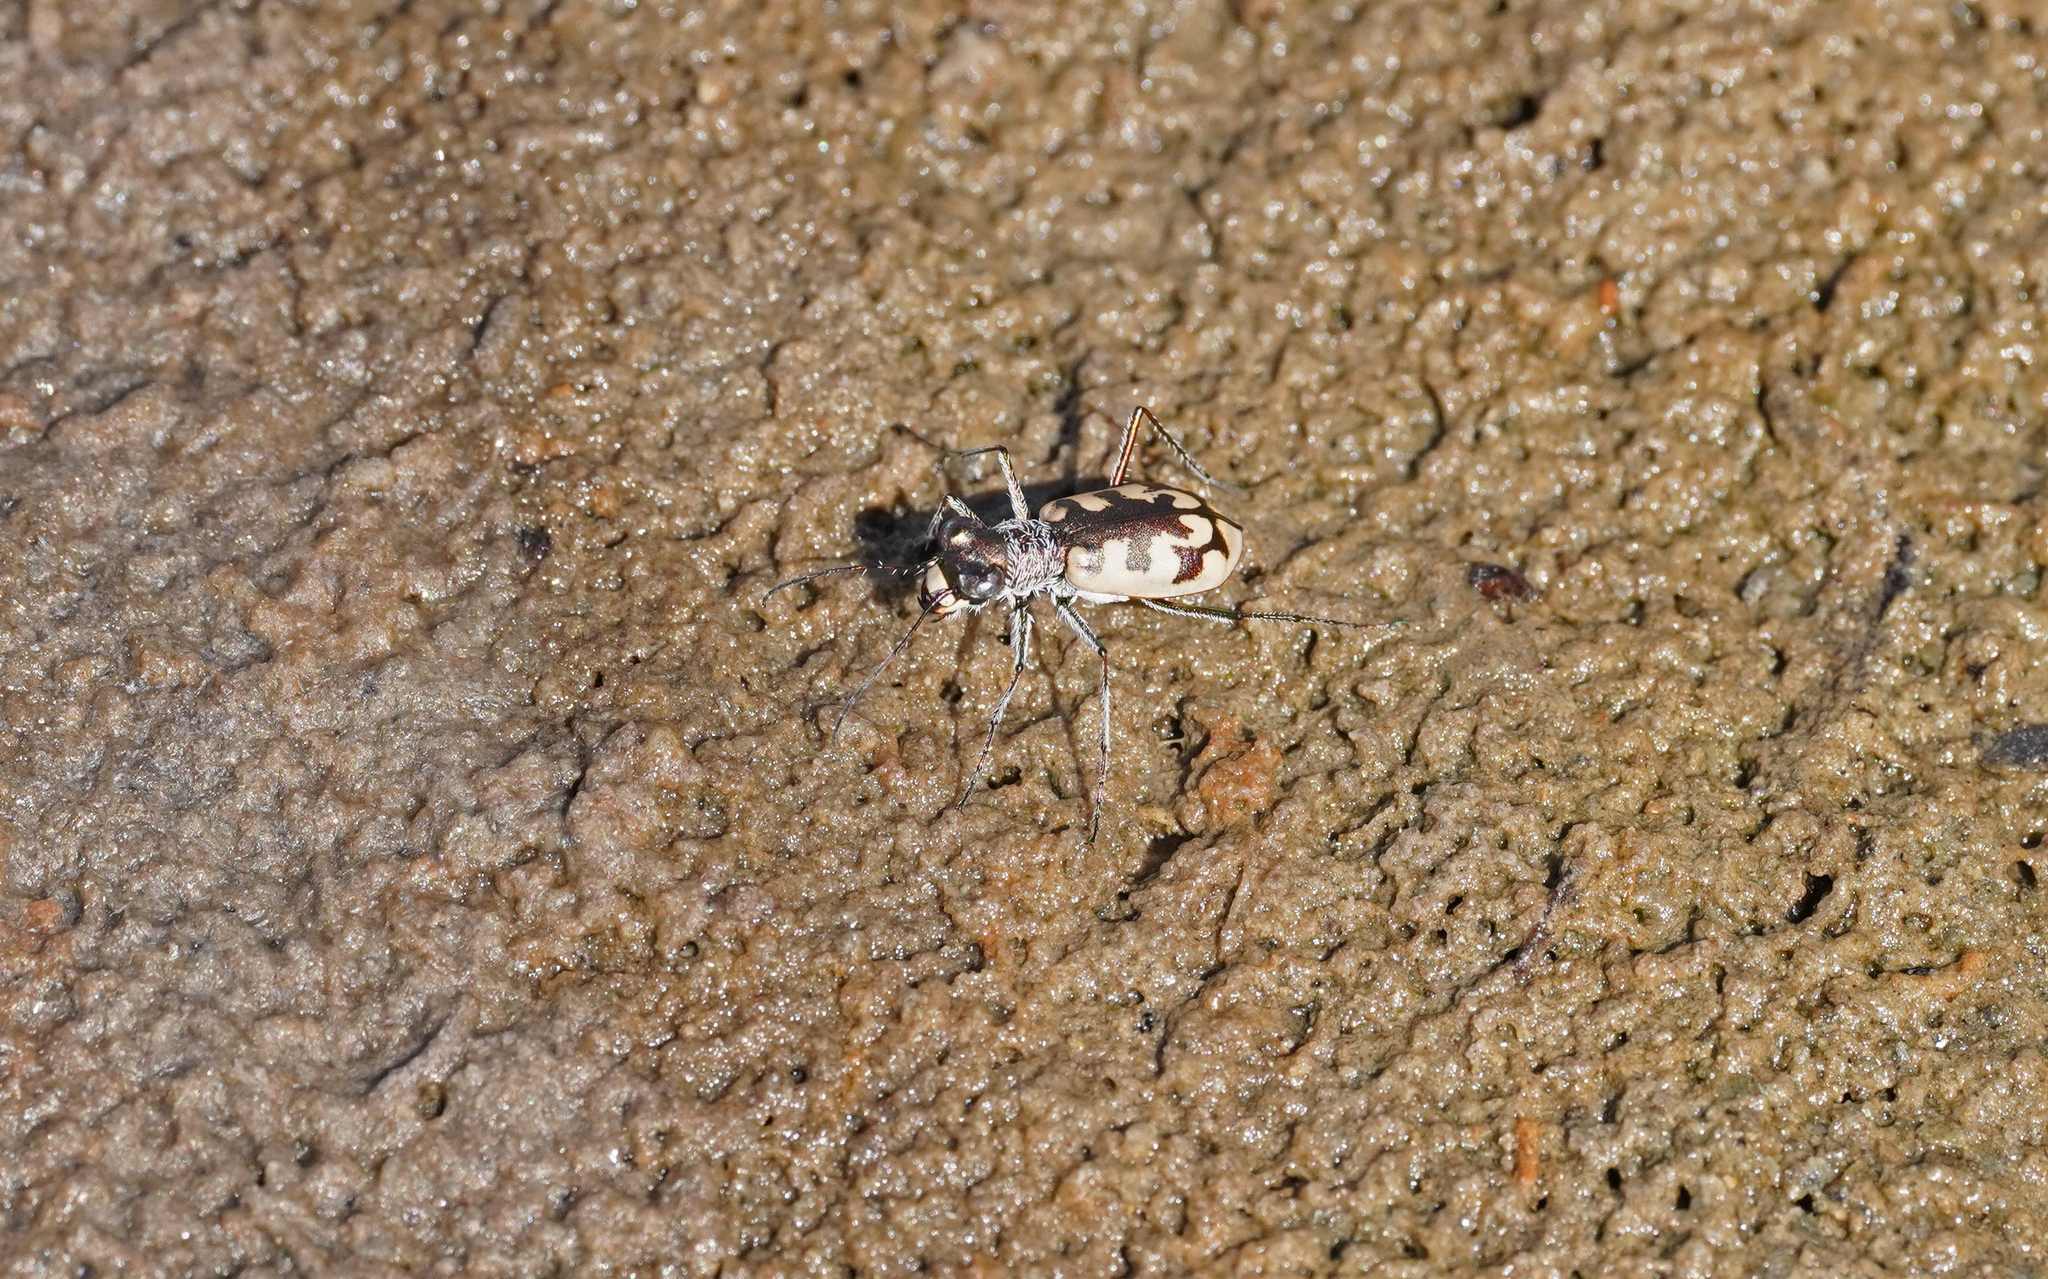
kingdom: Animalia
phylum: Arthropoda
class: Insecta
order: Coleoptera
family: Carabidae
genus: Cephalota
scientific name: Cephalota circumdata
